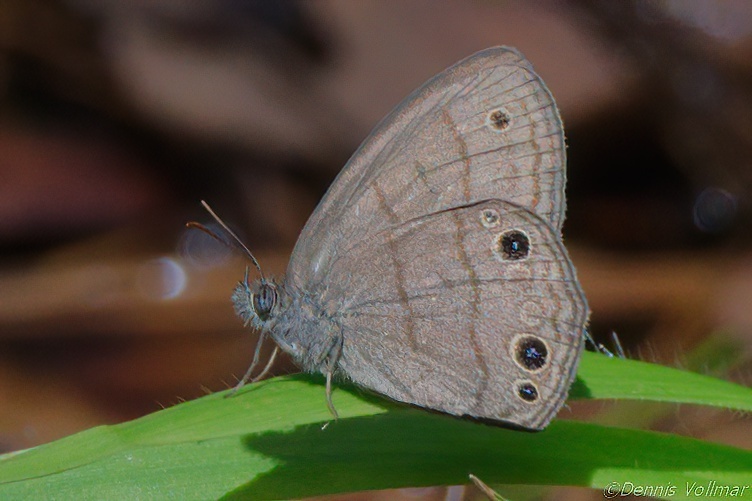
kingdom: Animalia
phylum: Arthropoda
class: Insecta
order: Lepidoptera
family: Nymphalidae
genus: Hermeuptychia
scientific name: Hermeuptychia hermes
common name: Hermes satyr
